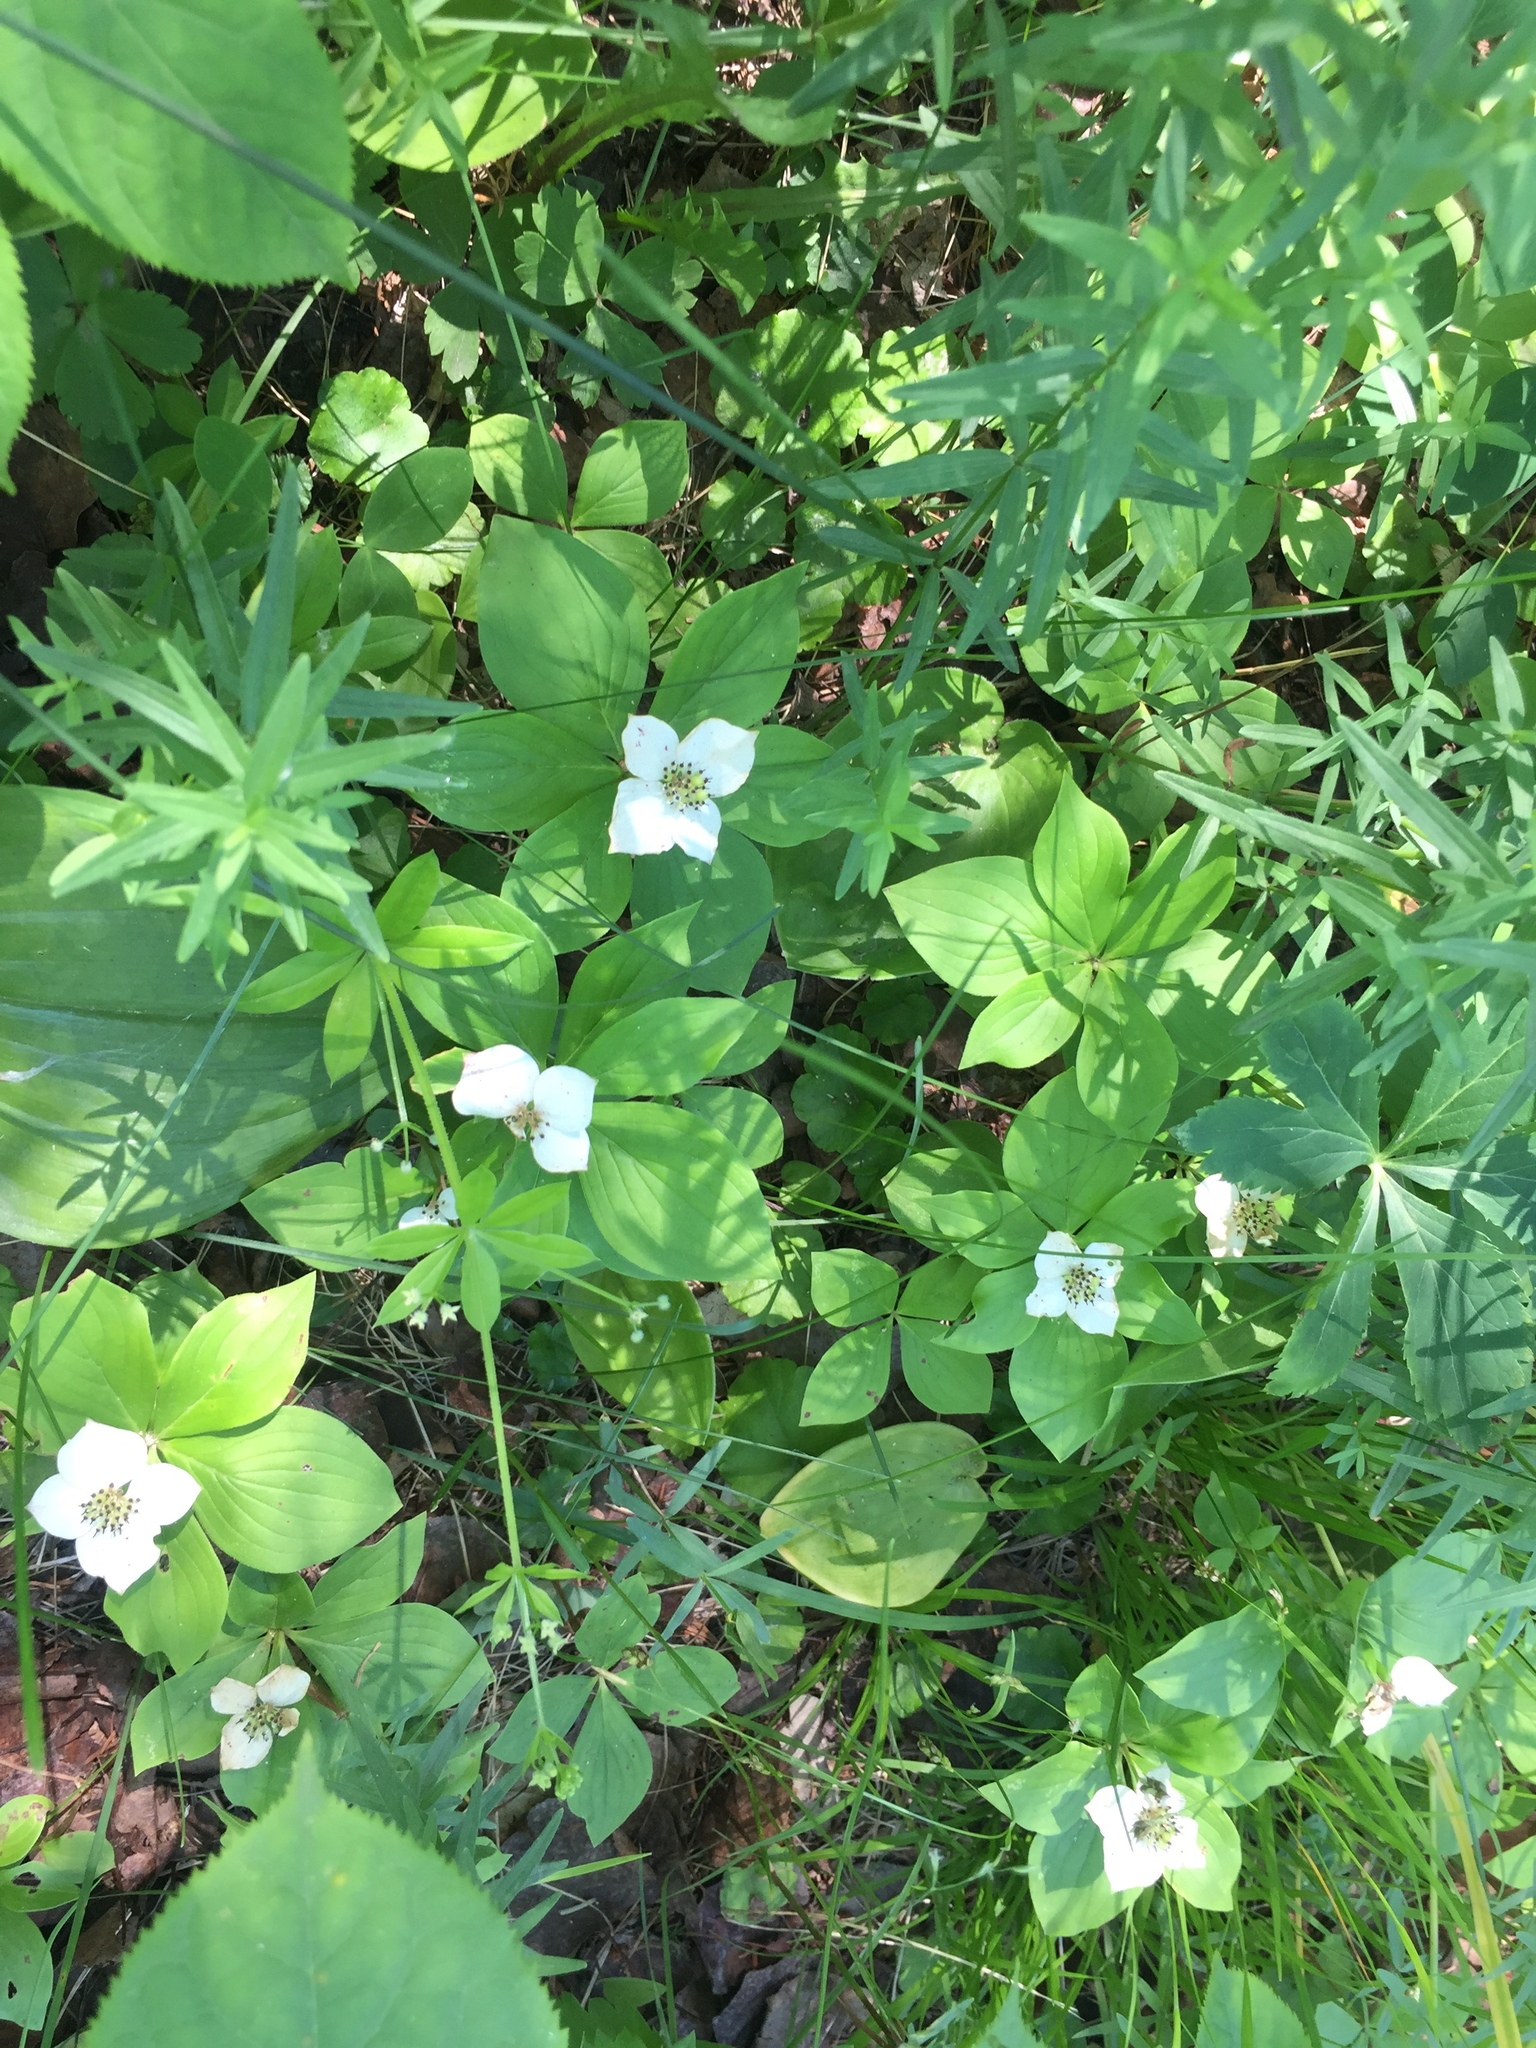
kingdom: Plantae
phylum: Tracheophyta
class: Magnoliopsida
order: Cornales
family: Cornaceae
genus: Cornus
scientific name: Cornus canadensis
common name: Creeping dogwood
